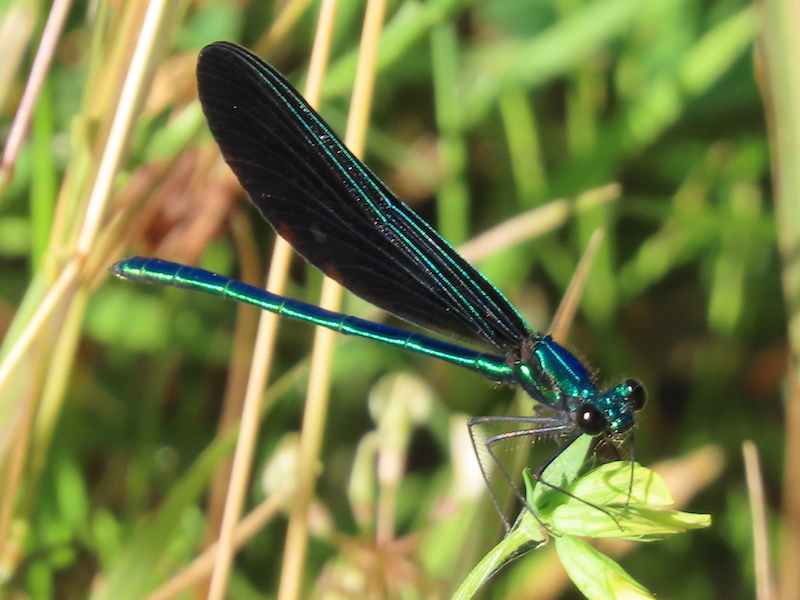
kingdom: Animalia
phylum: Arthropoda
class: Insecta
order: Odonata
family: Calopterygidae
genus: Calopteryx
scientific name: Calopteryx maculata
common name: Ebony jewelwing
